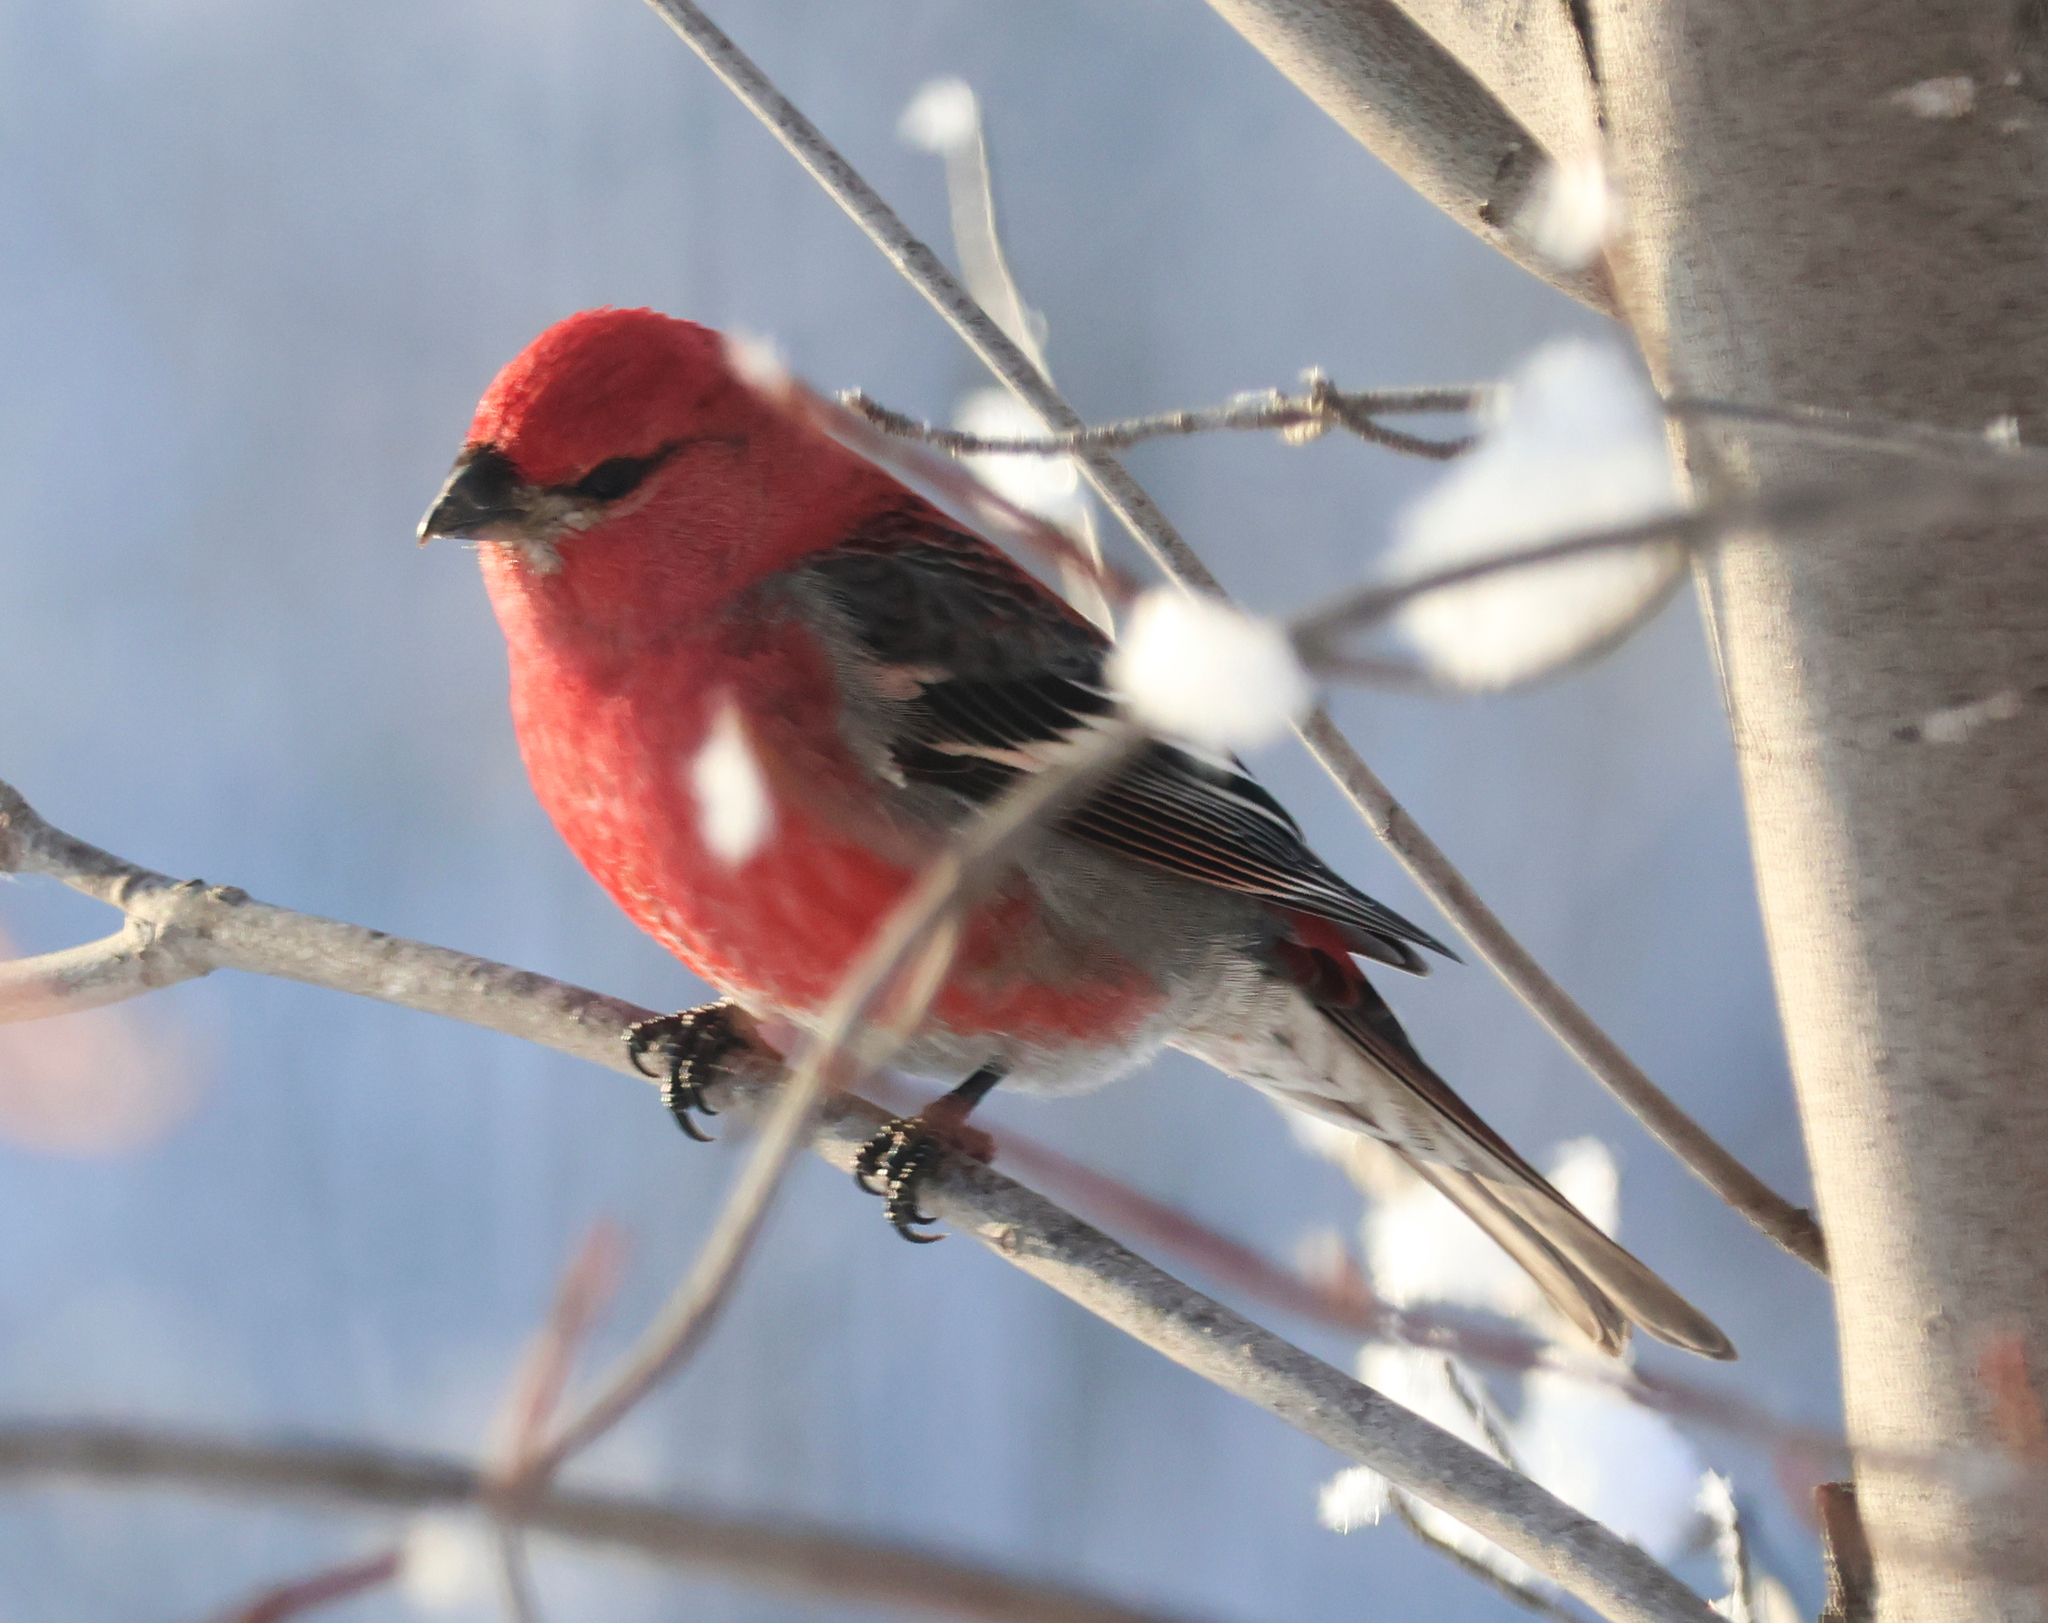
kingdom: Animalia
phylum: Chordata
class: Aves
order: Passeriformes
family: Fringillidae
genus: Pinicola
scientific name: Pinicola enucleator
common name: Pine grosbeak
